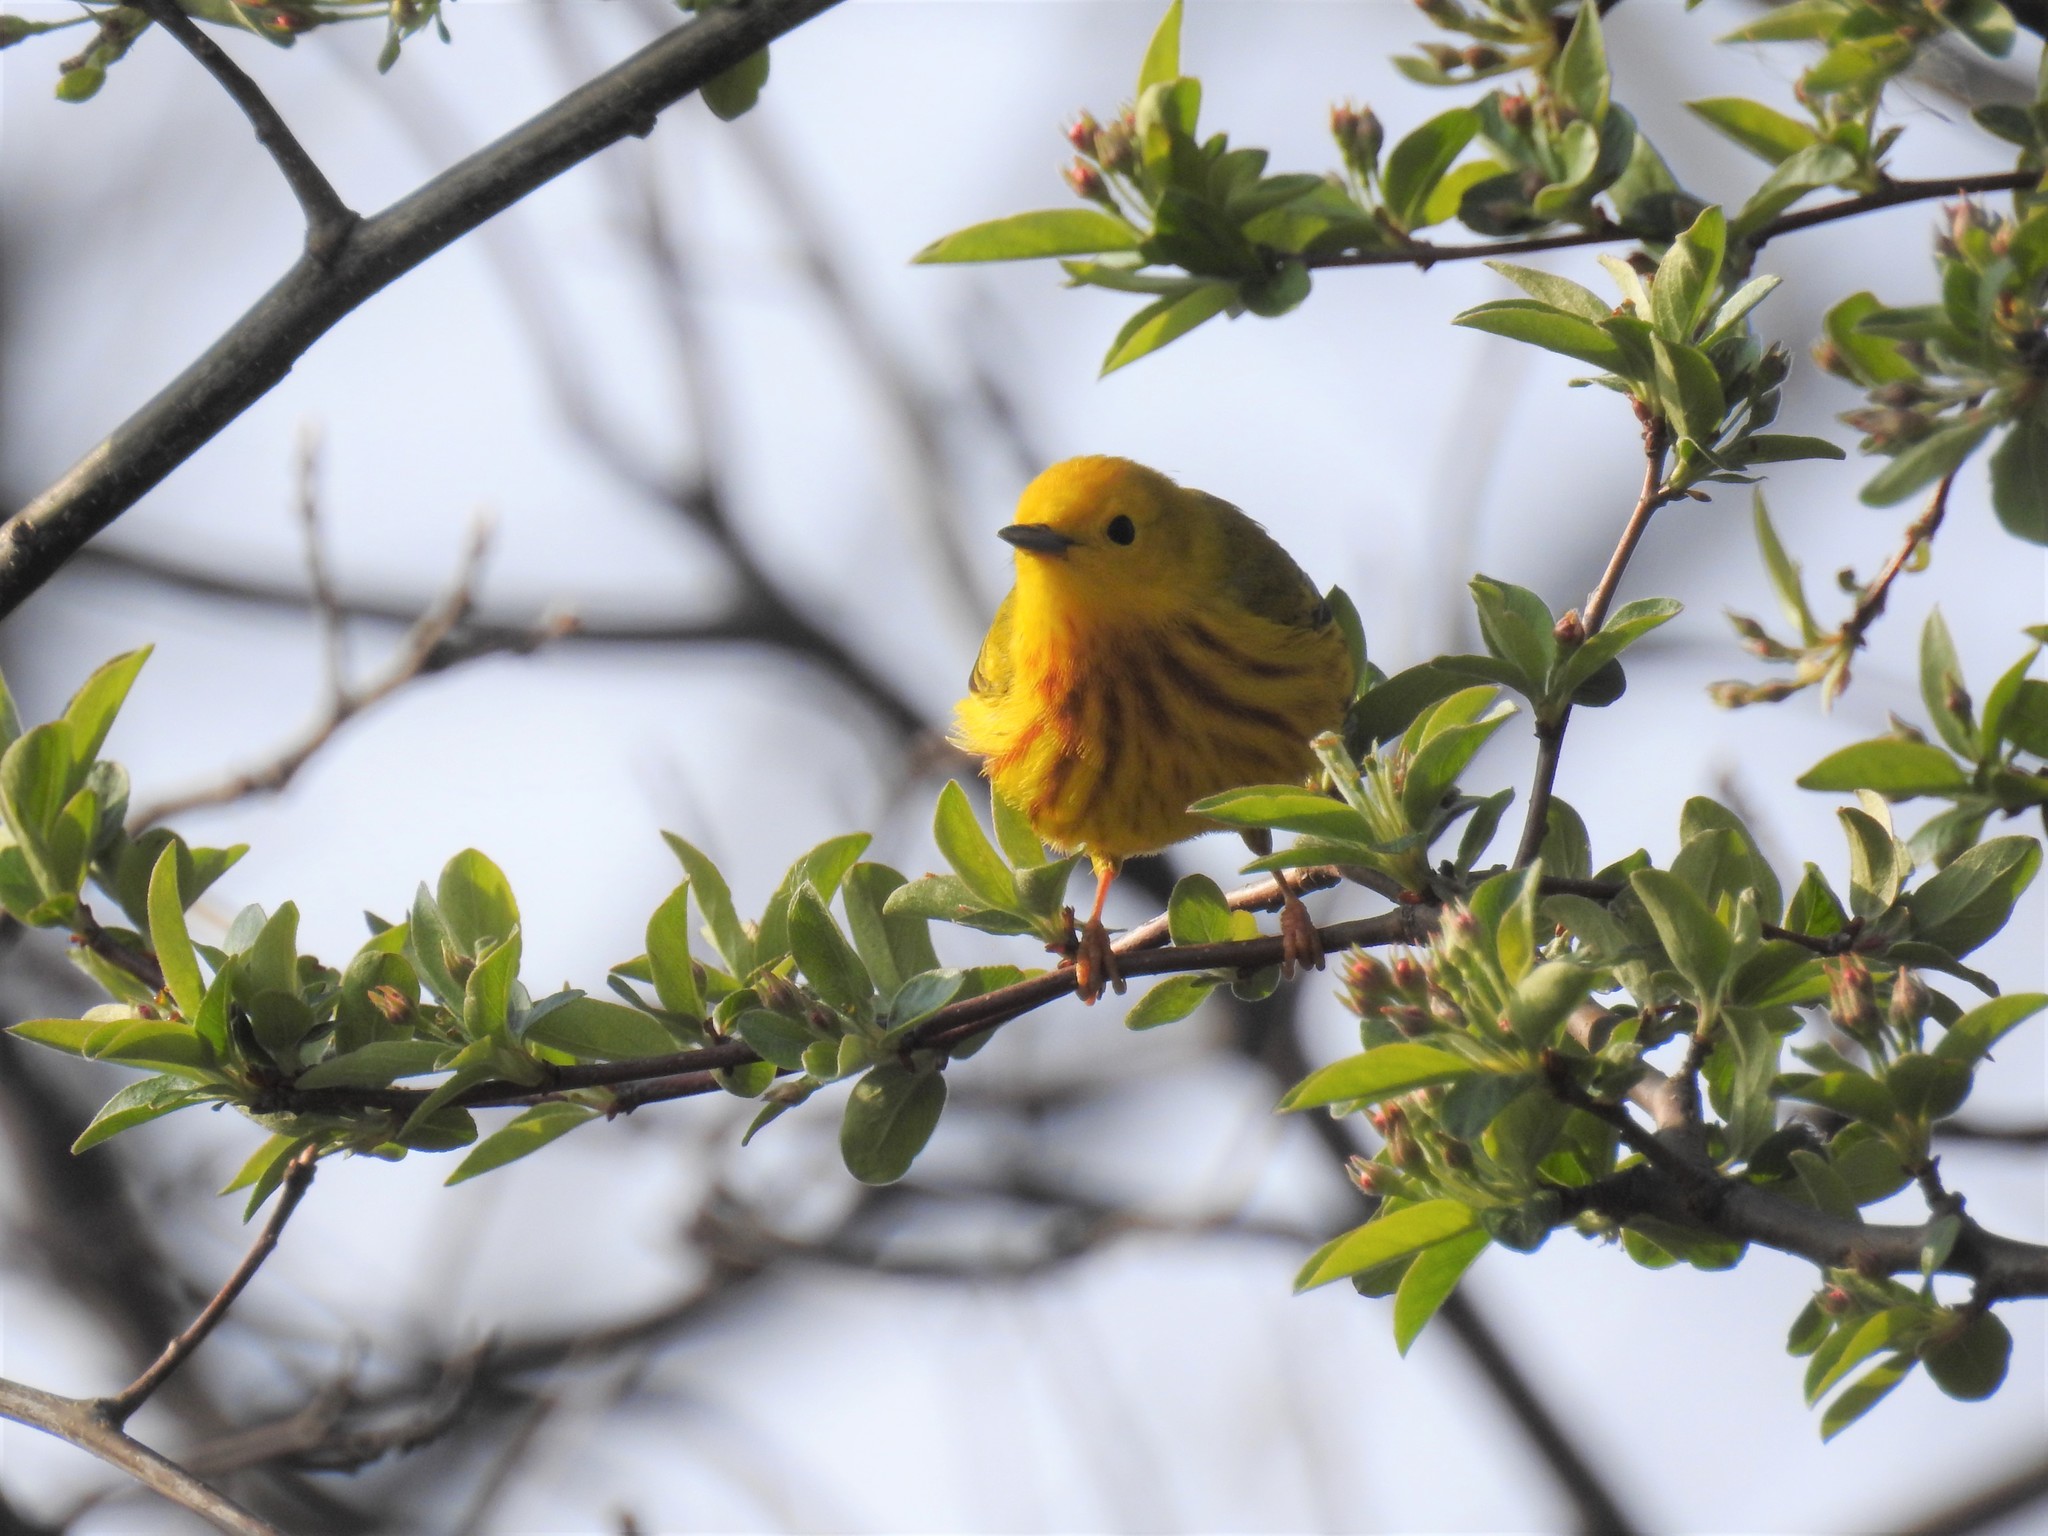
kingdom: Animalia
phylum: Chordata
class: Aves
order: Passeriformes
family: Parulidae
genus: Setophaga
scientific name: Setophaga petechia
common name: Yellow warbler
